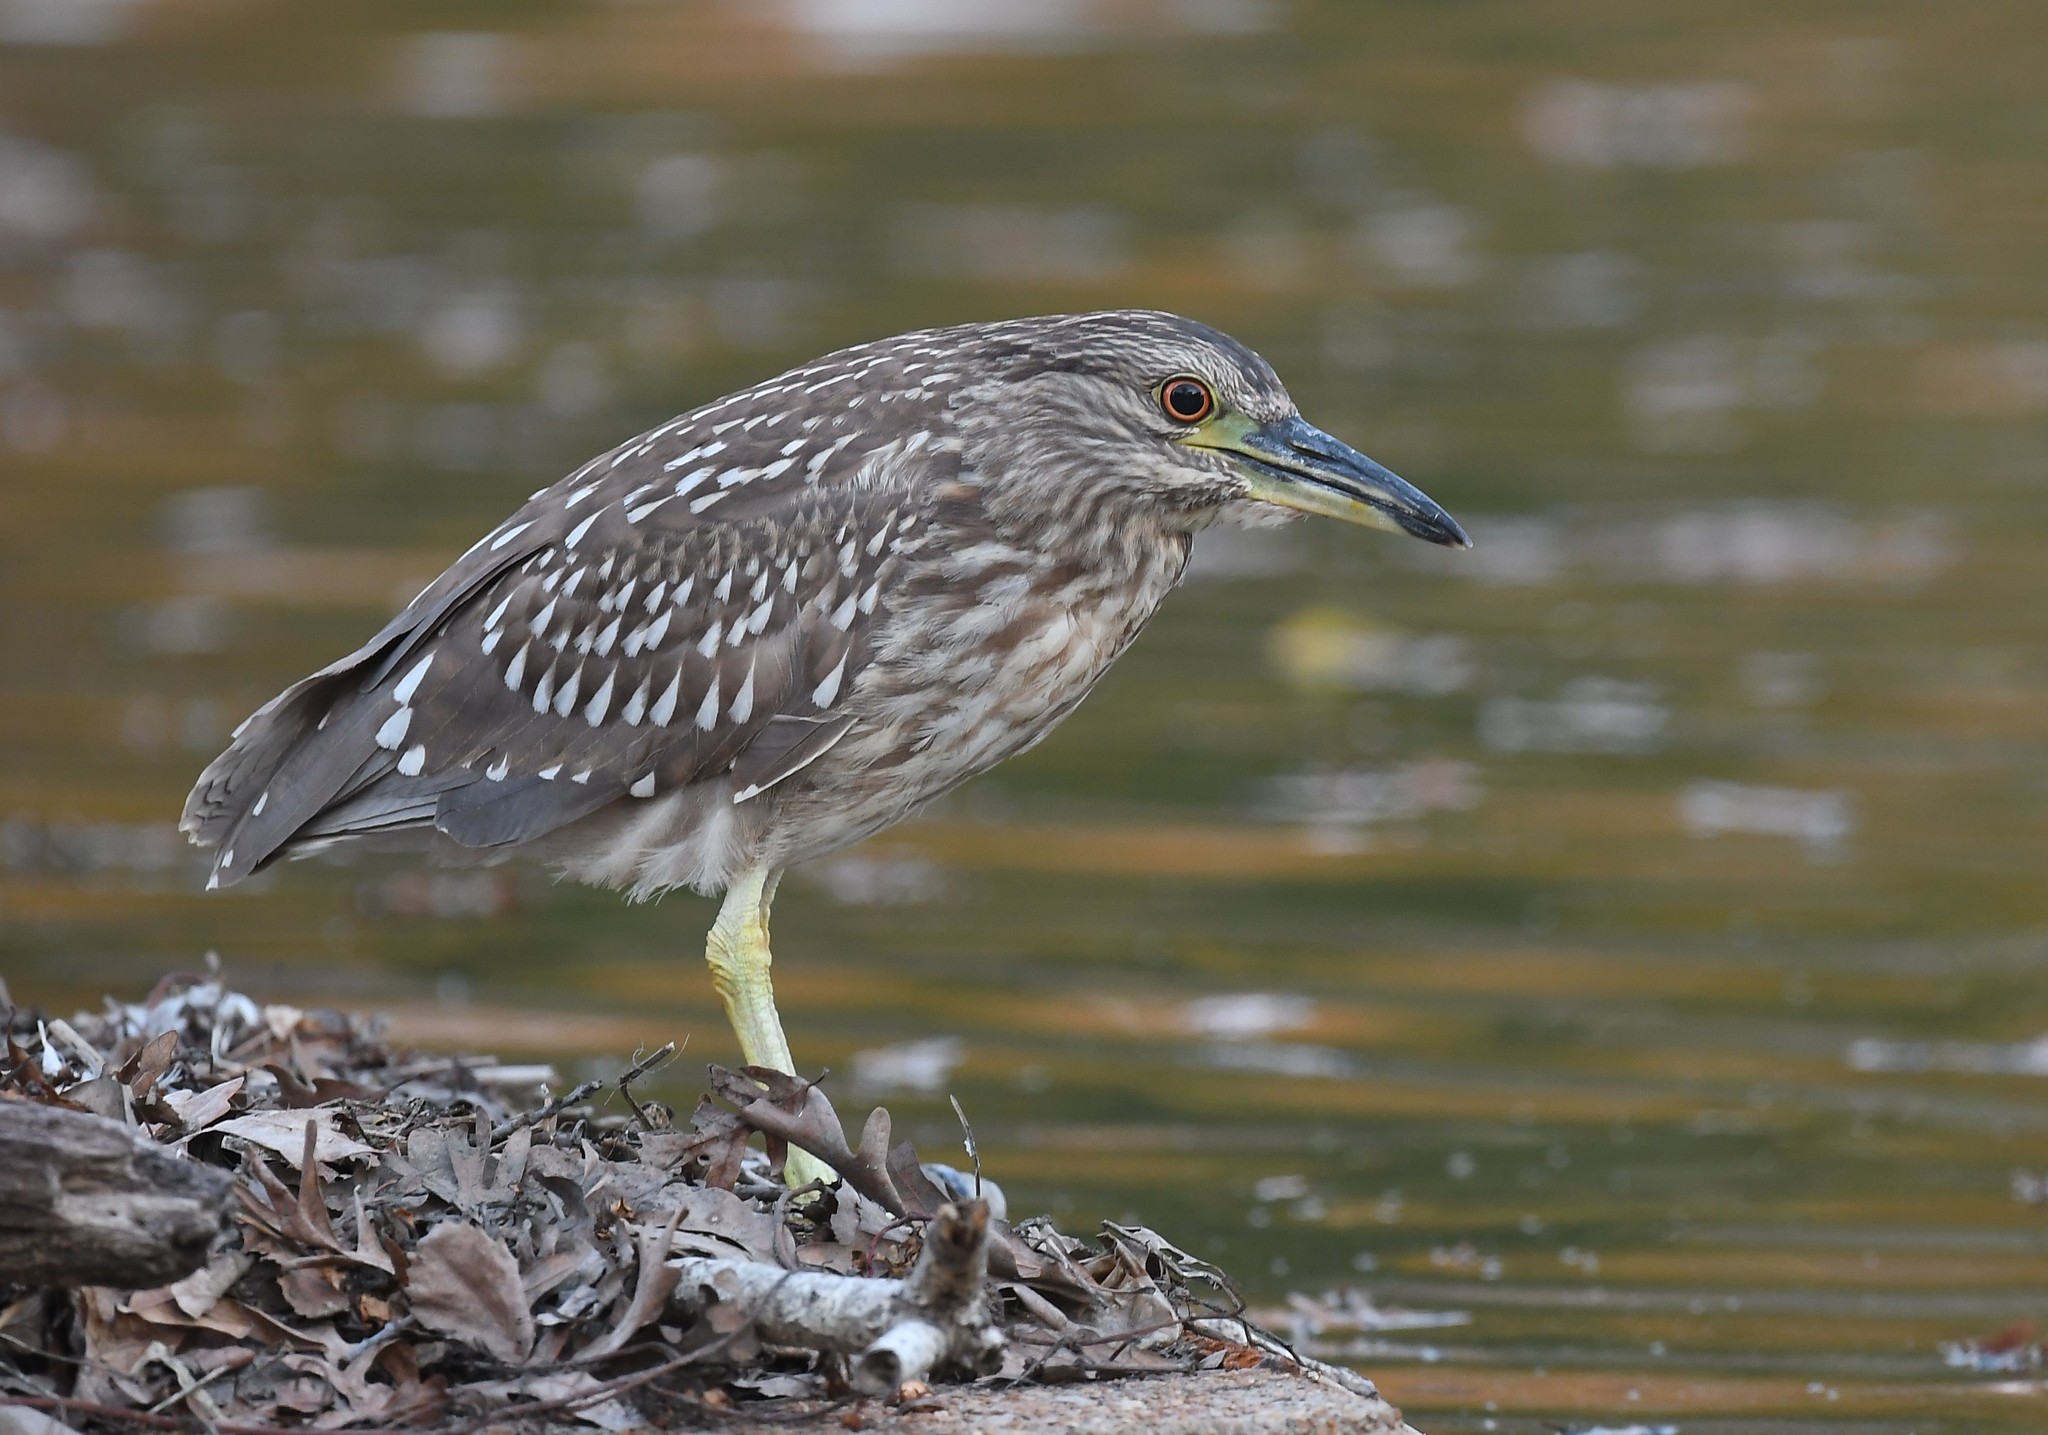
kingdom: Animalia
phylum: Chordata
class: Aves
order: Pelecaniformes
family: Ardeidae
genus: Nycticorax
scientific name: Nycticorax nycticorax
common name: Black-crowned night heron
